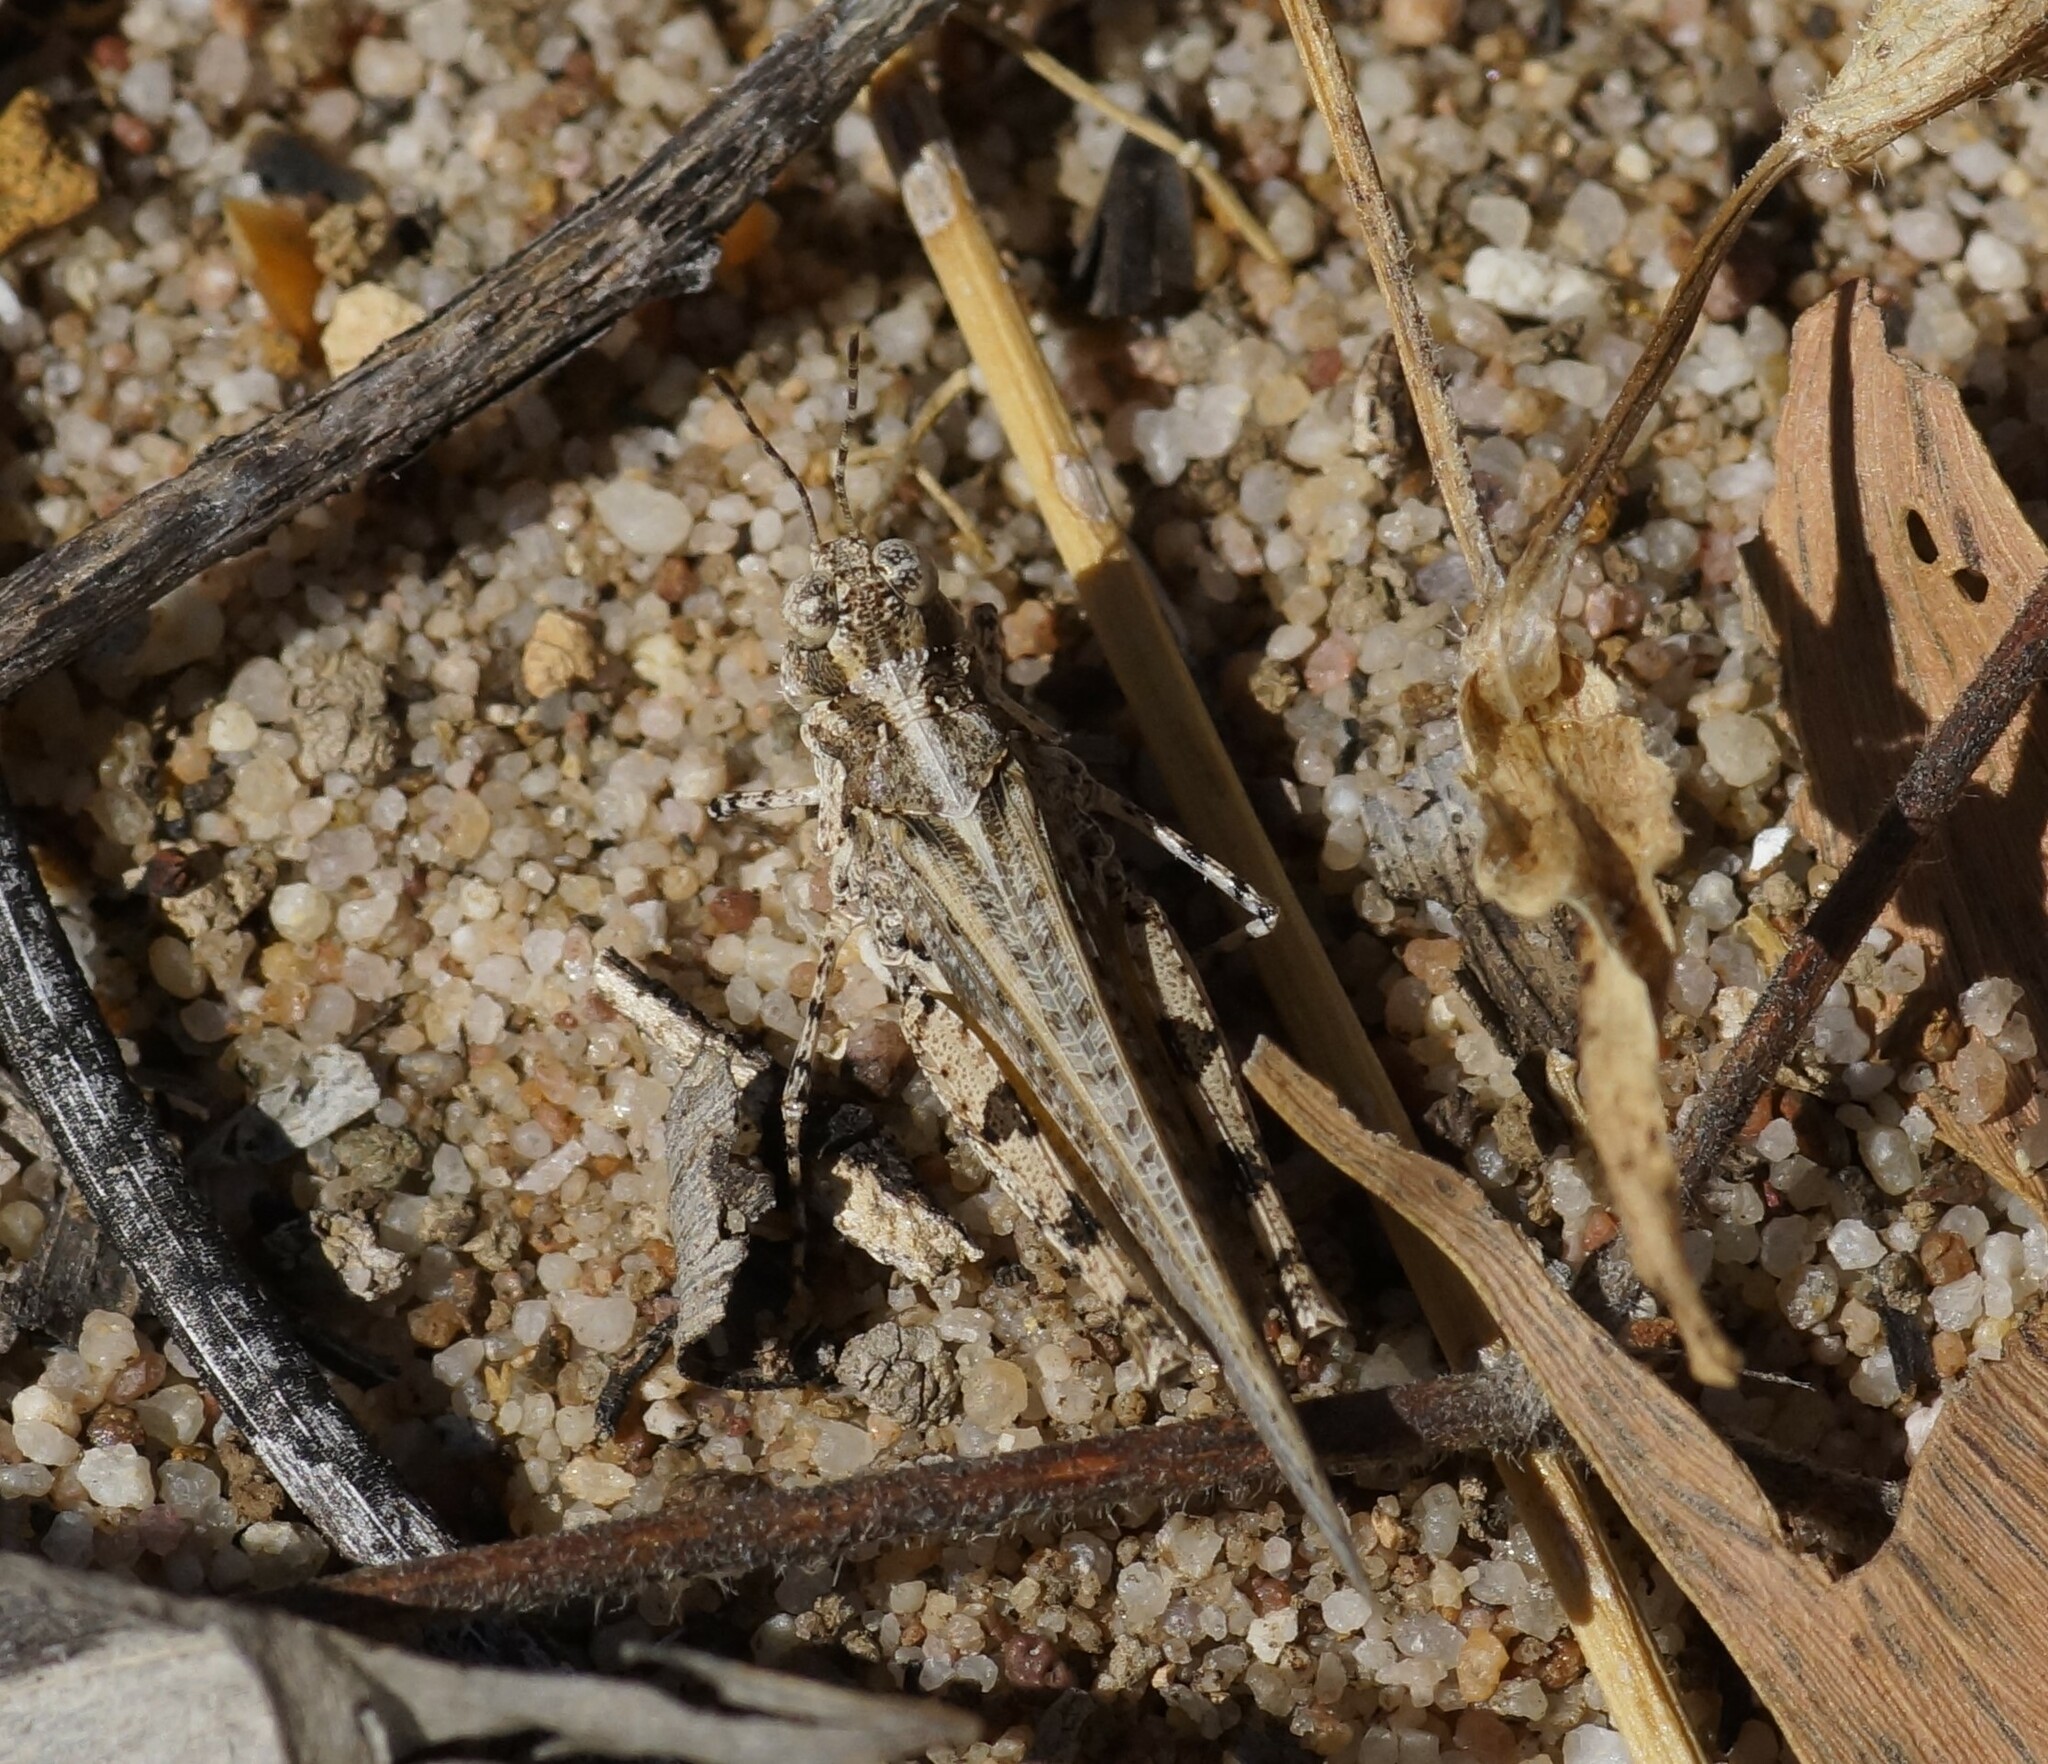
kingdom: Animalia
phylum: Arthropoda
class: Insecta
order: Orthoptera
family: Acrididae
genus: Pycnostictus
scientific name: Pycnostictus seriatus
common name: Common bandwing
